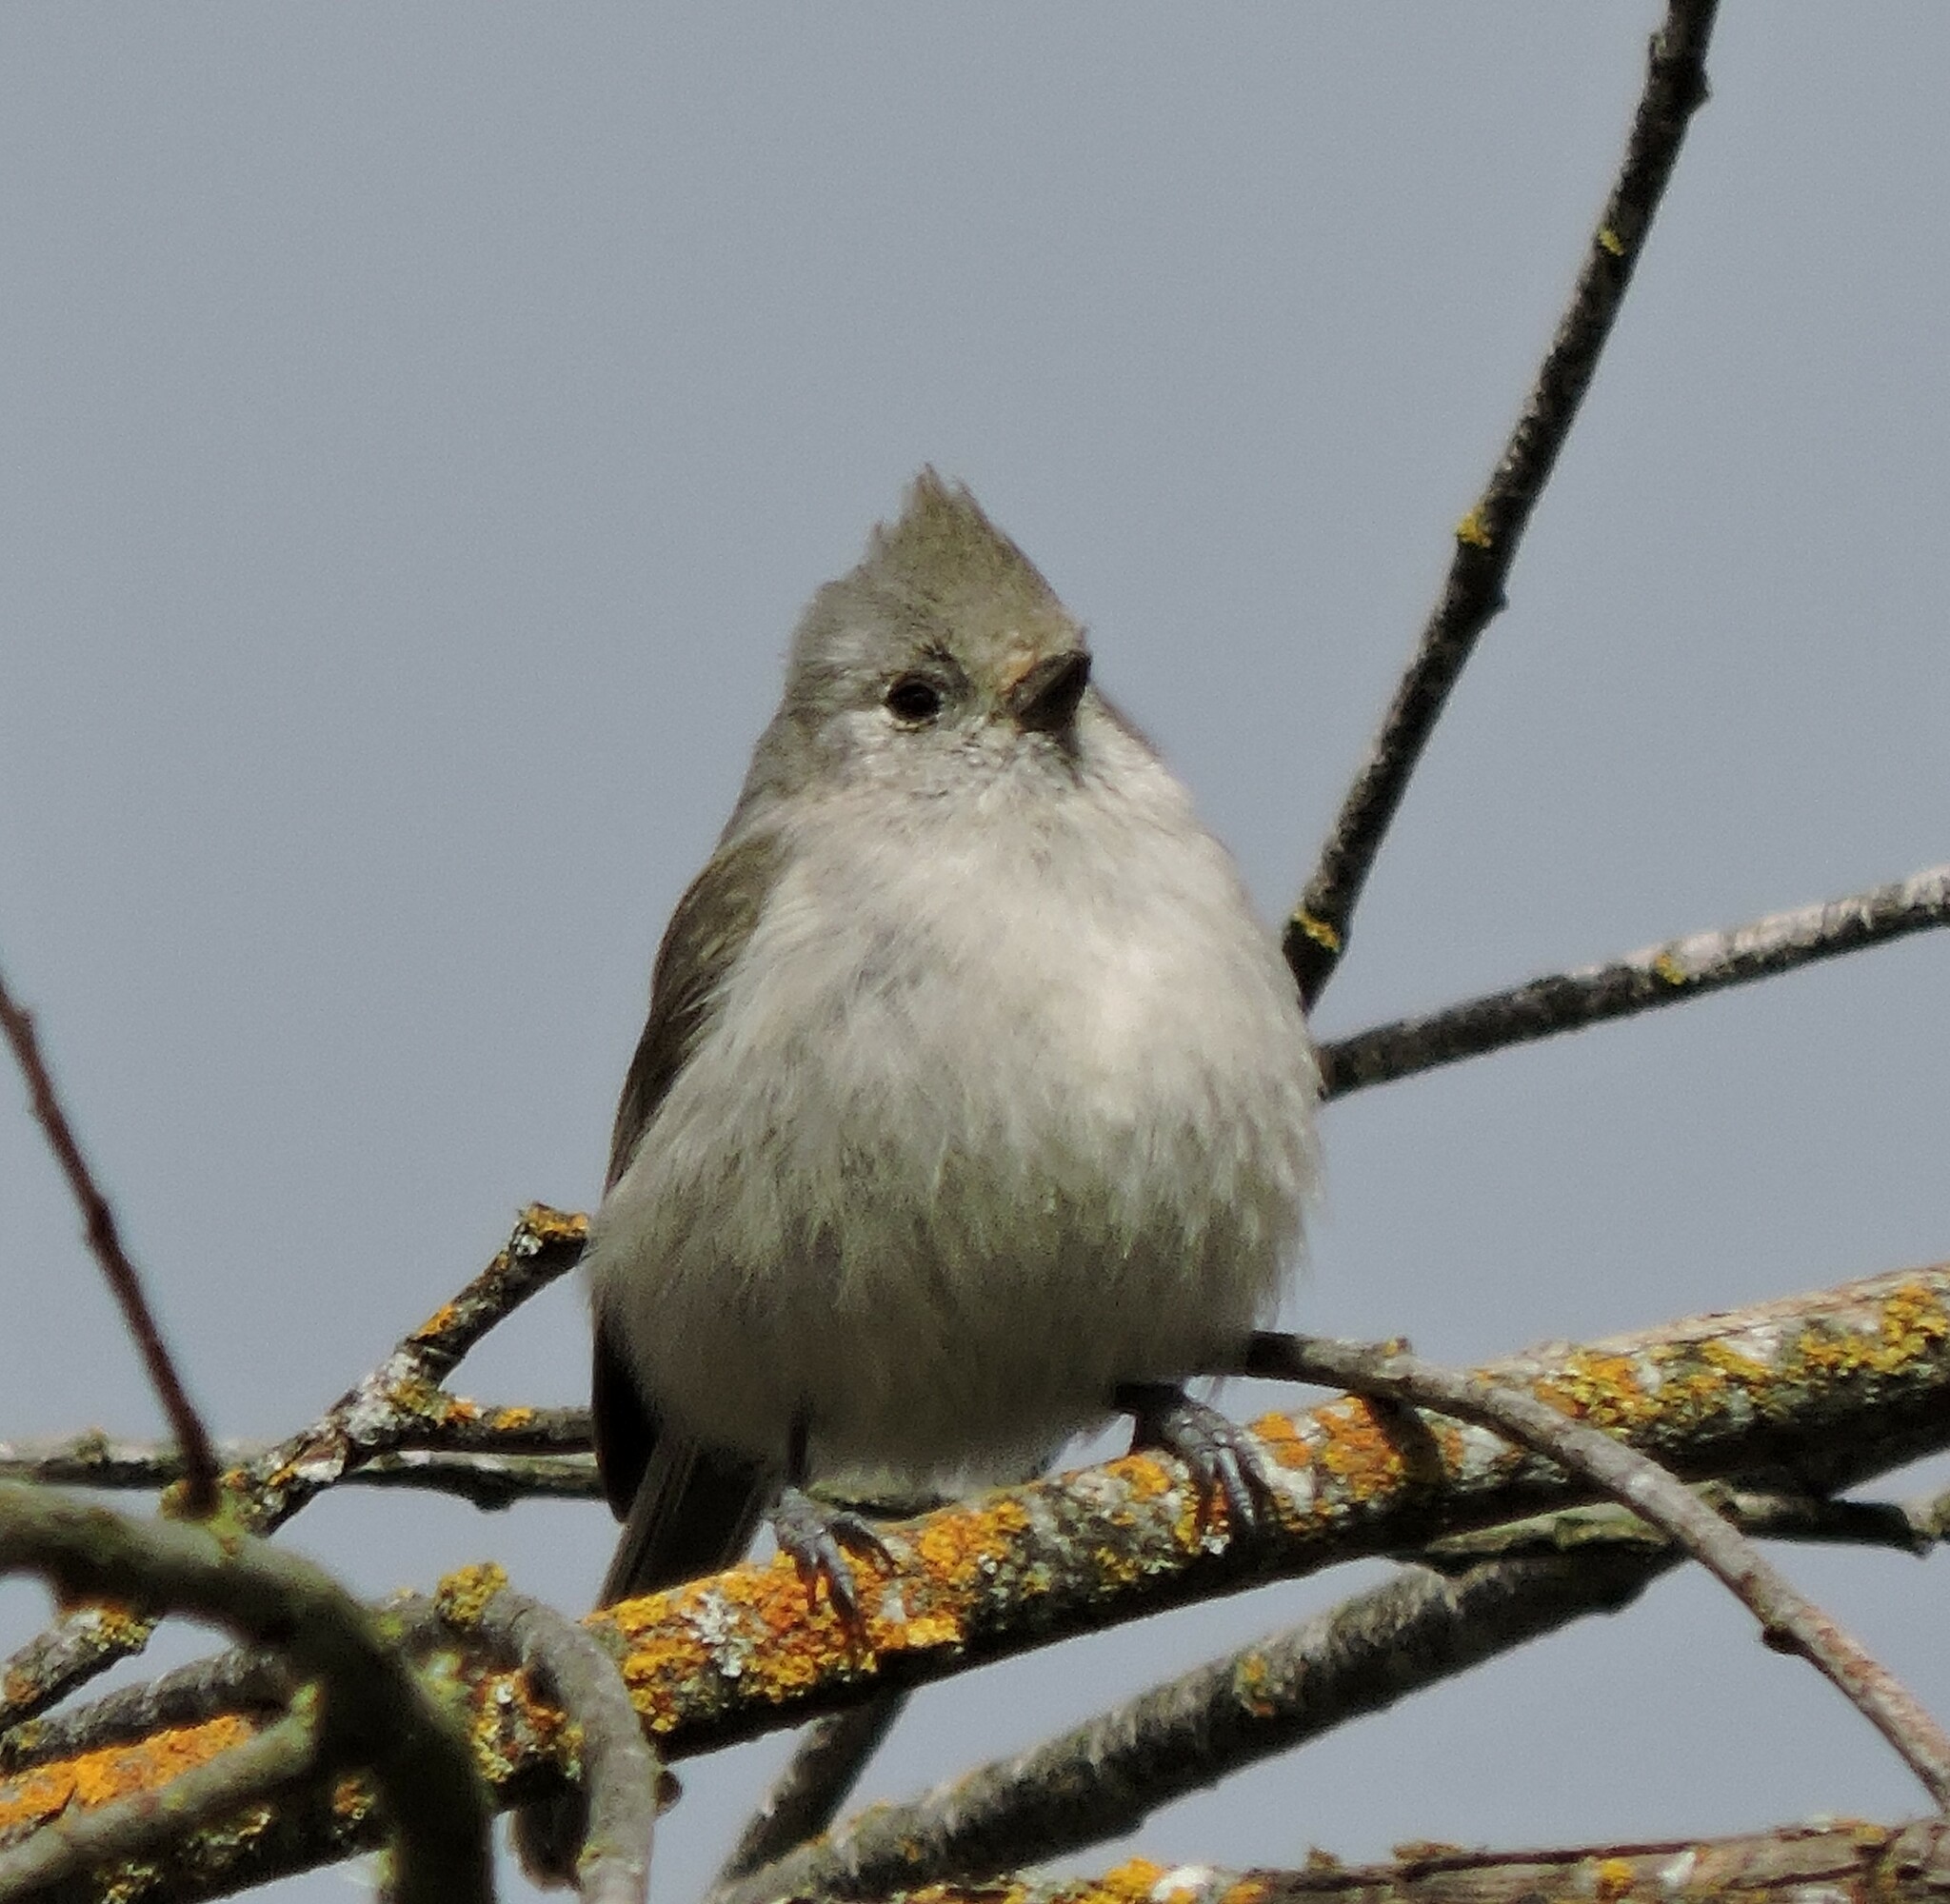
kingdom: Animalia
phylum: Chordata
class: Aves
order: Passeriformes
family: Paridae
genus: Baeolophus
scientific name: Baeolophus inornatus
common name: Oak titmouse
